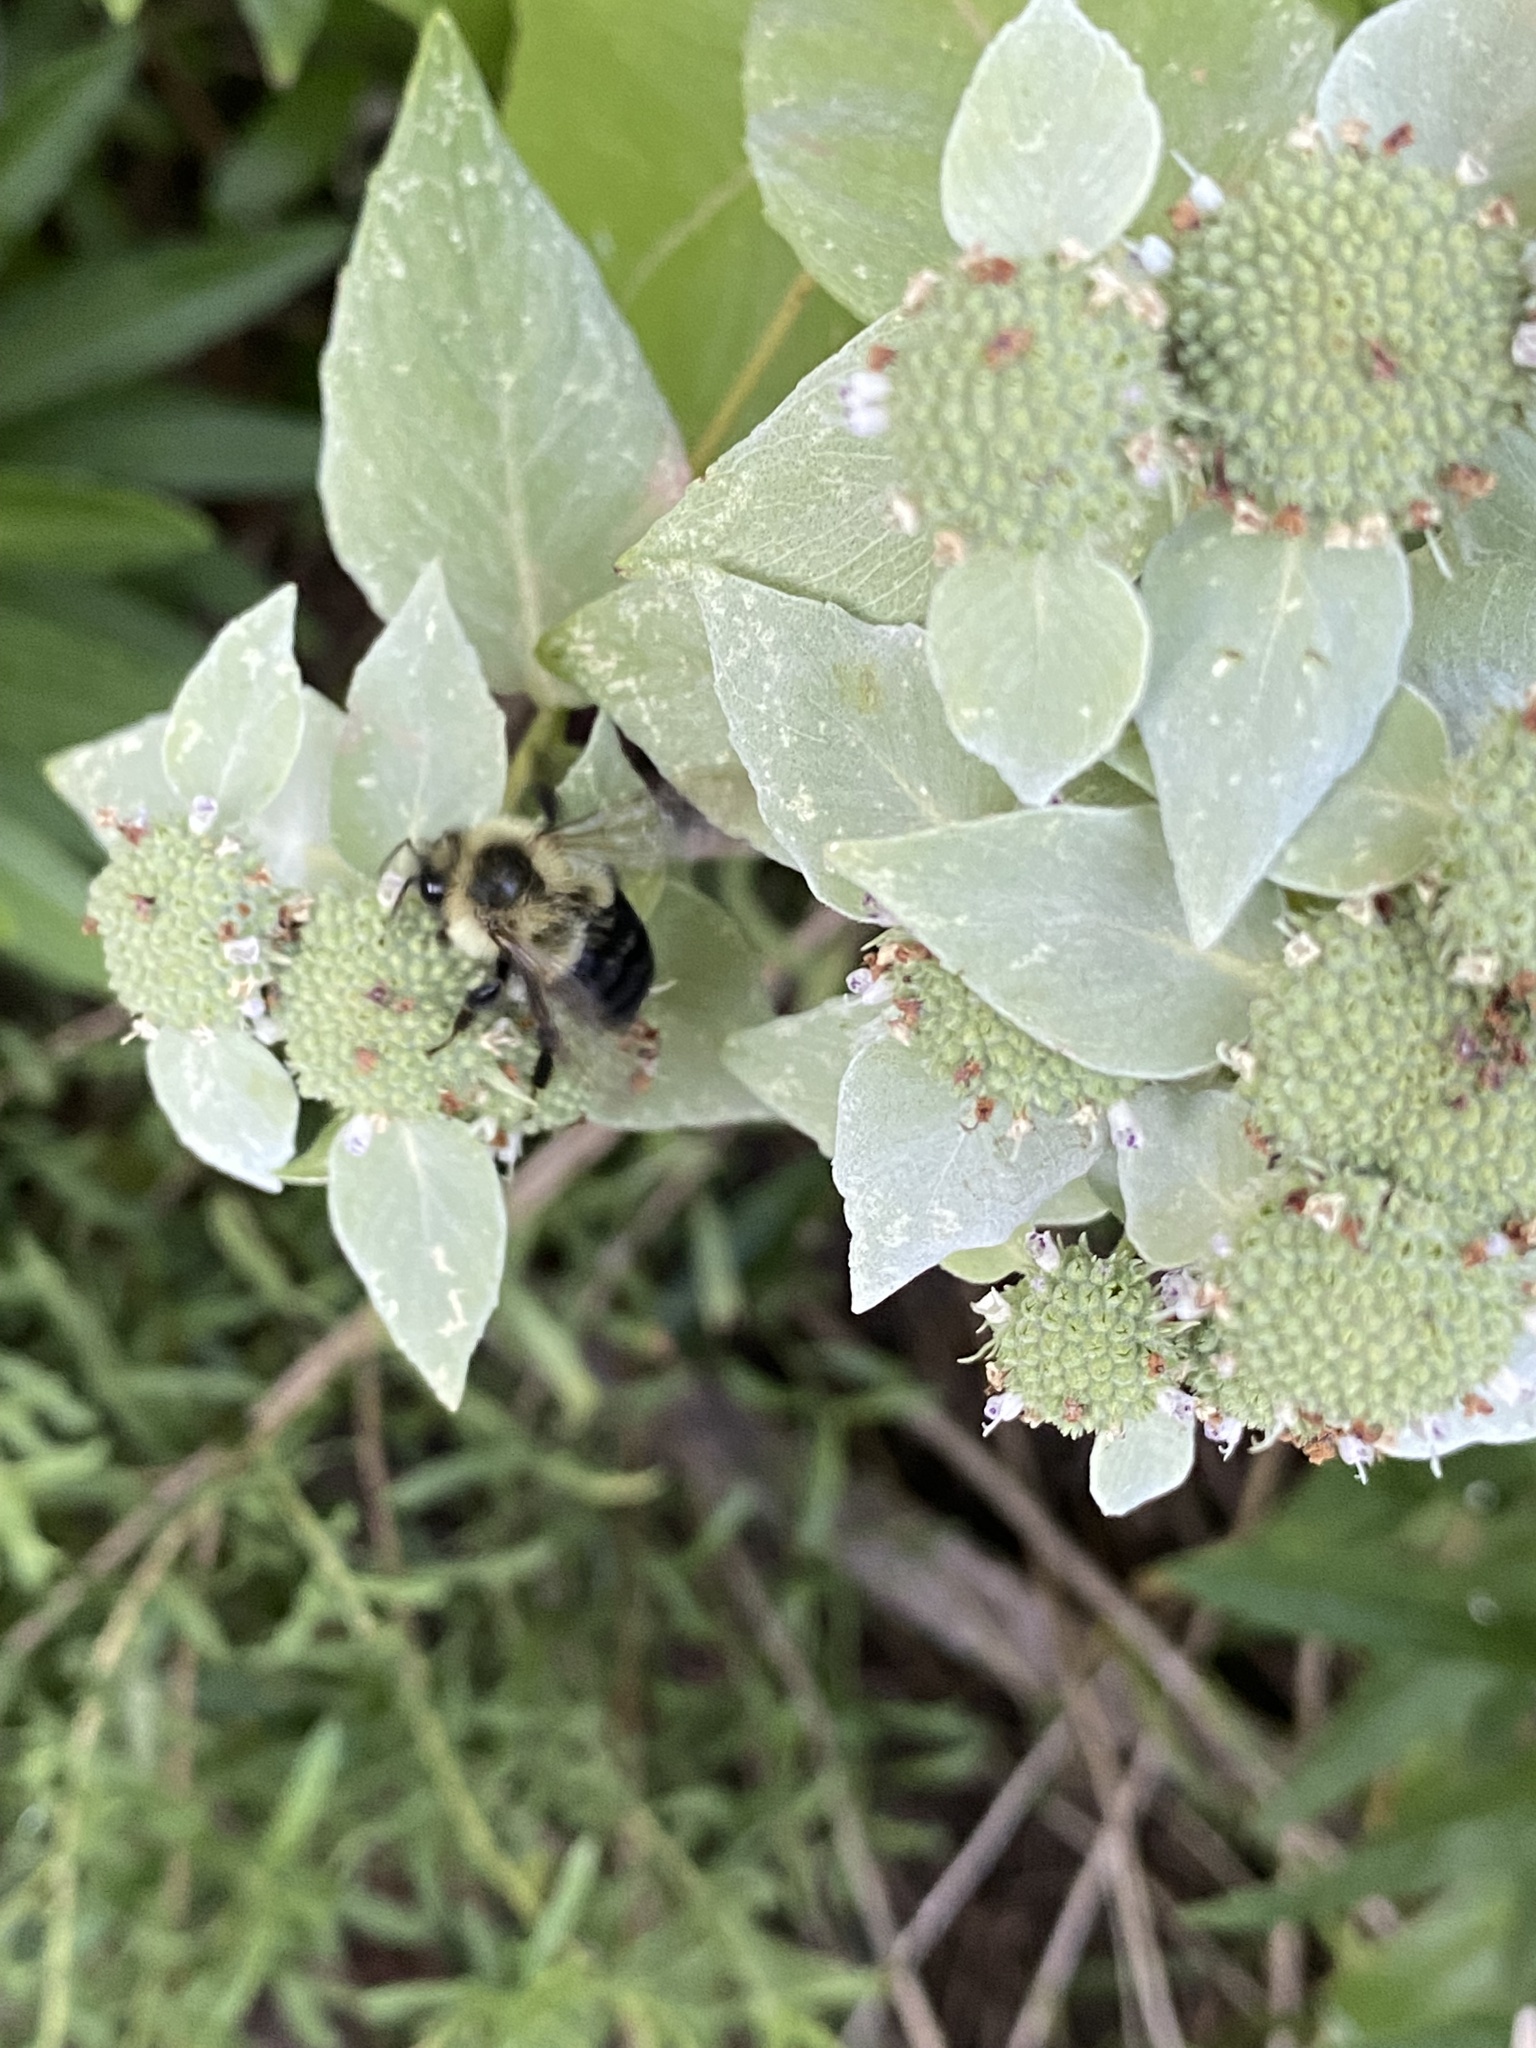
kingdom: Animalia
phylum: Arthropoda
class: Insecta
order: Hymenoptera
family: Apidae
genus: Bombus
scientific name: Bombus impatiens
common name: Common eastern bumble bee
